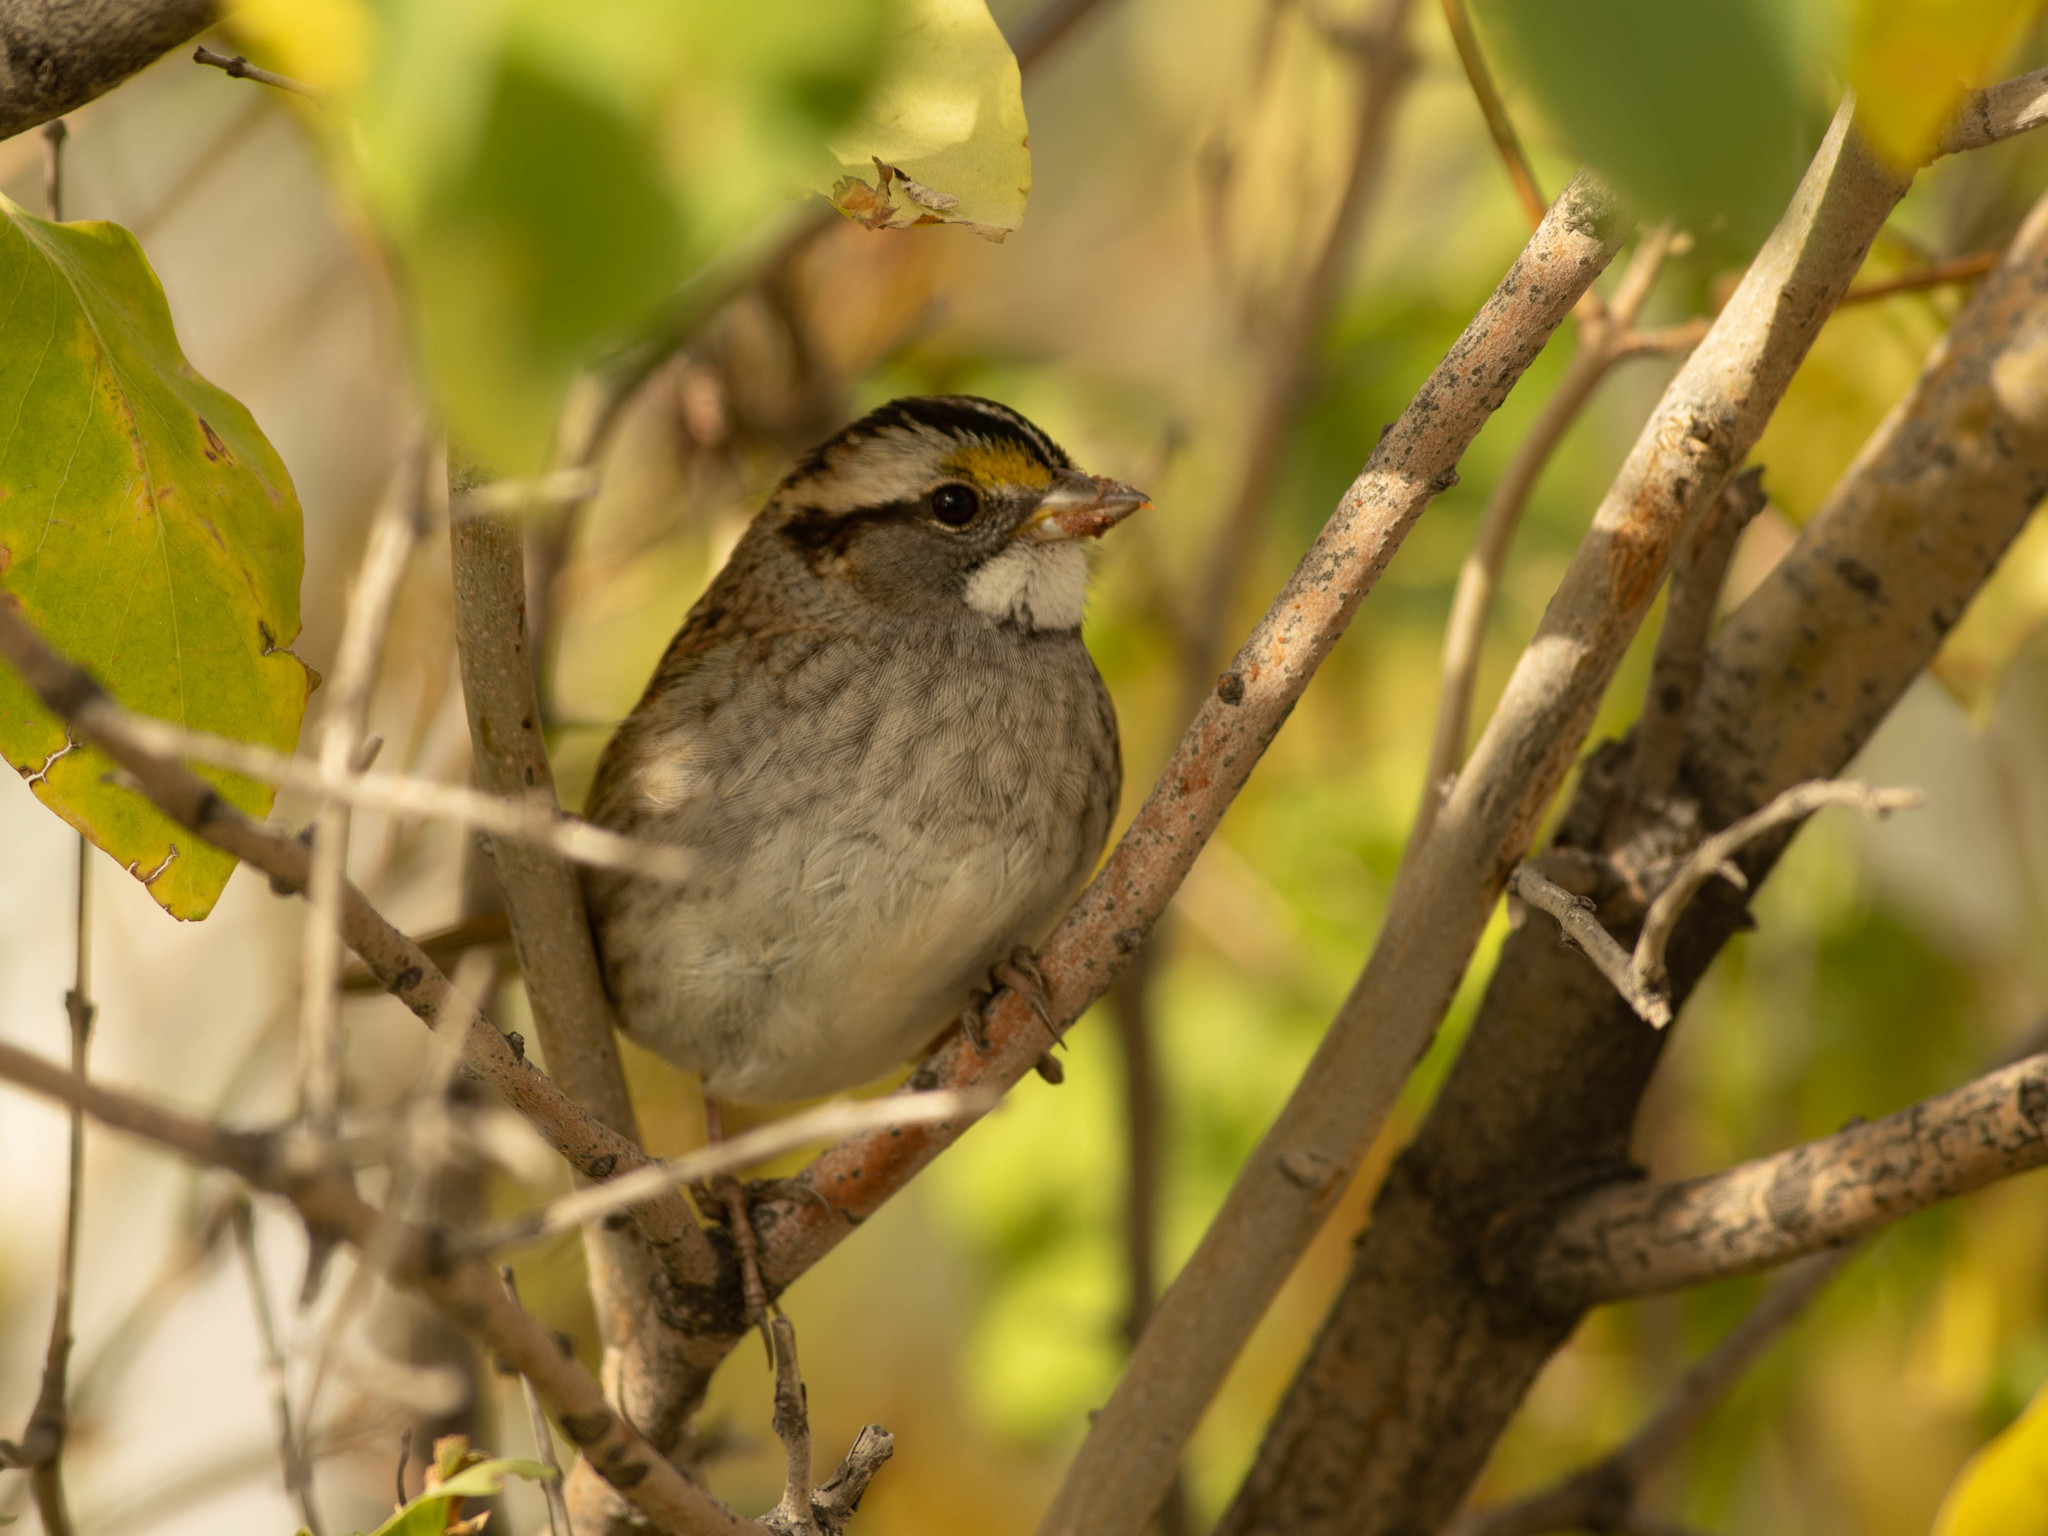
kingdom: Animalia
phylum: Chordata
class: Aves
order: Passeriformes
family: Passerellidae
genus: Zonotrichia
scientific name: Zonotrichia albicollis
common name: White-throated sparrow
